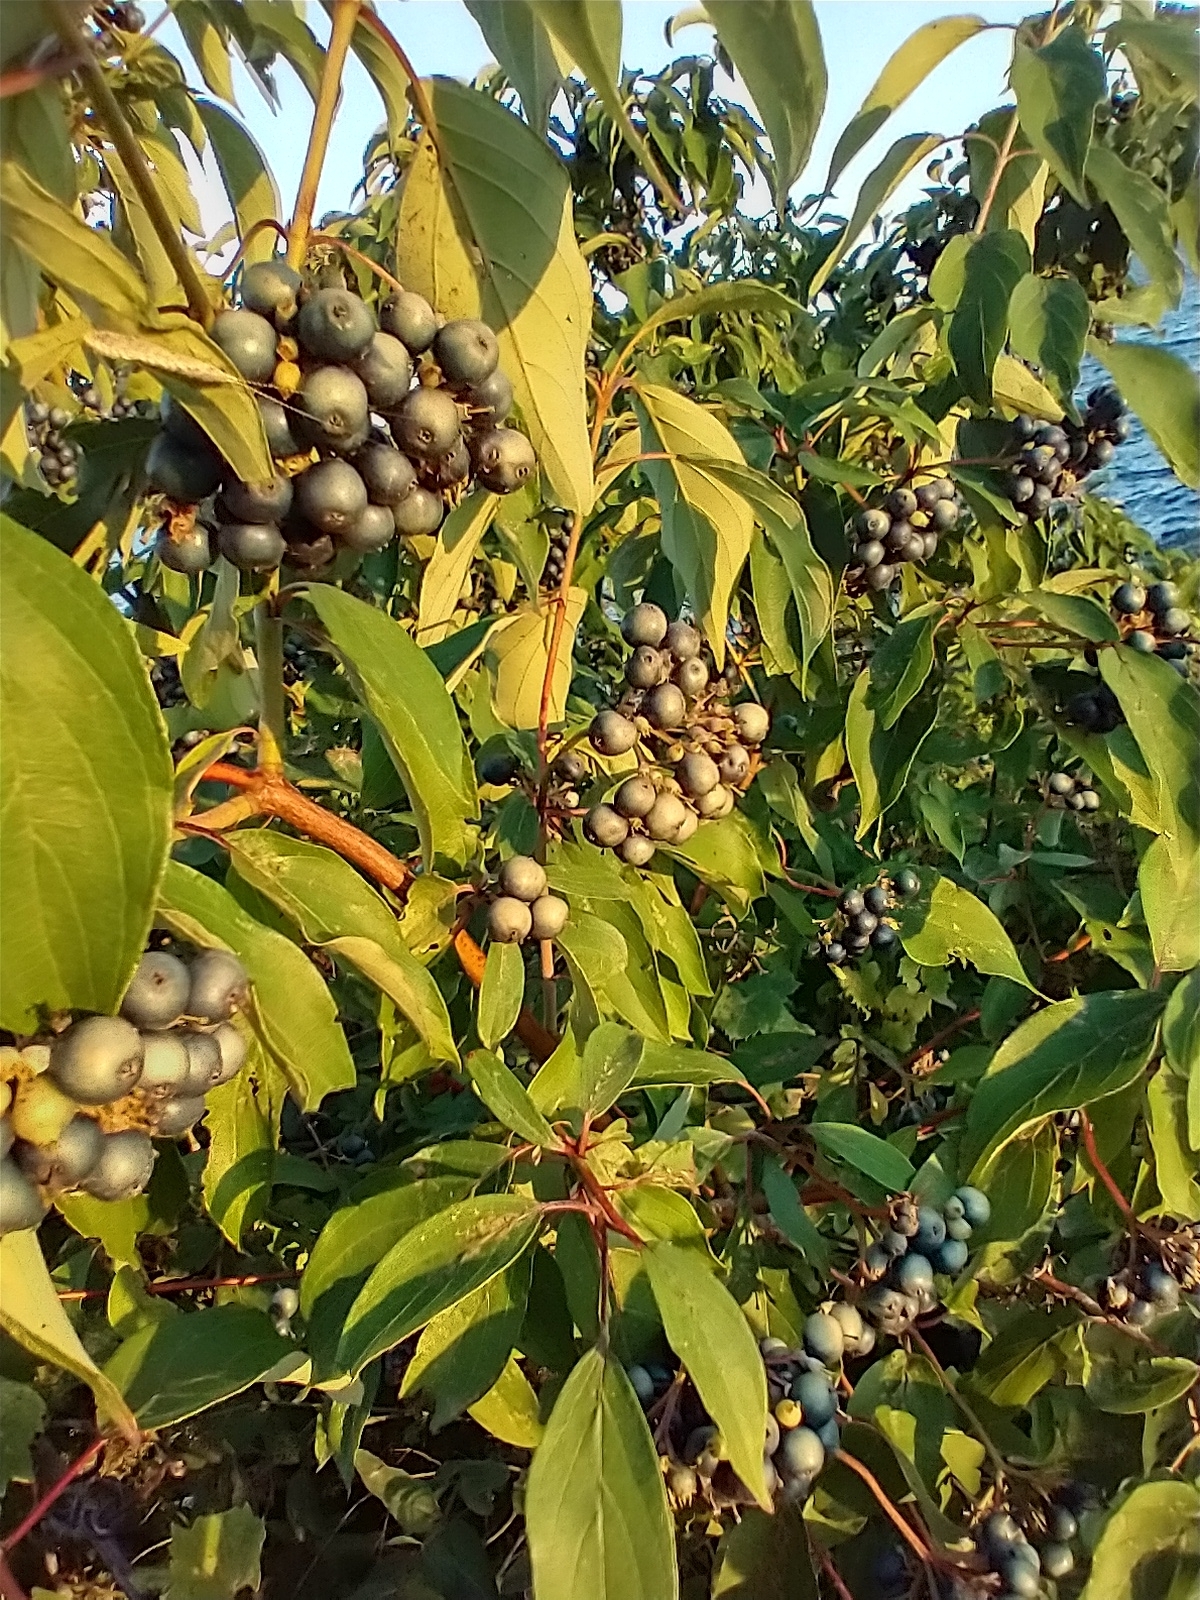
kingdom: Plantae
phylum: Tracheophyta
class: Magnoliopsida
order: Cornales
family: Cornaceae
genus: Cornus
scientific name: Cornus amomum
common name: Silky dogwood
